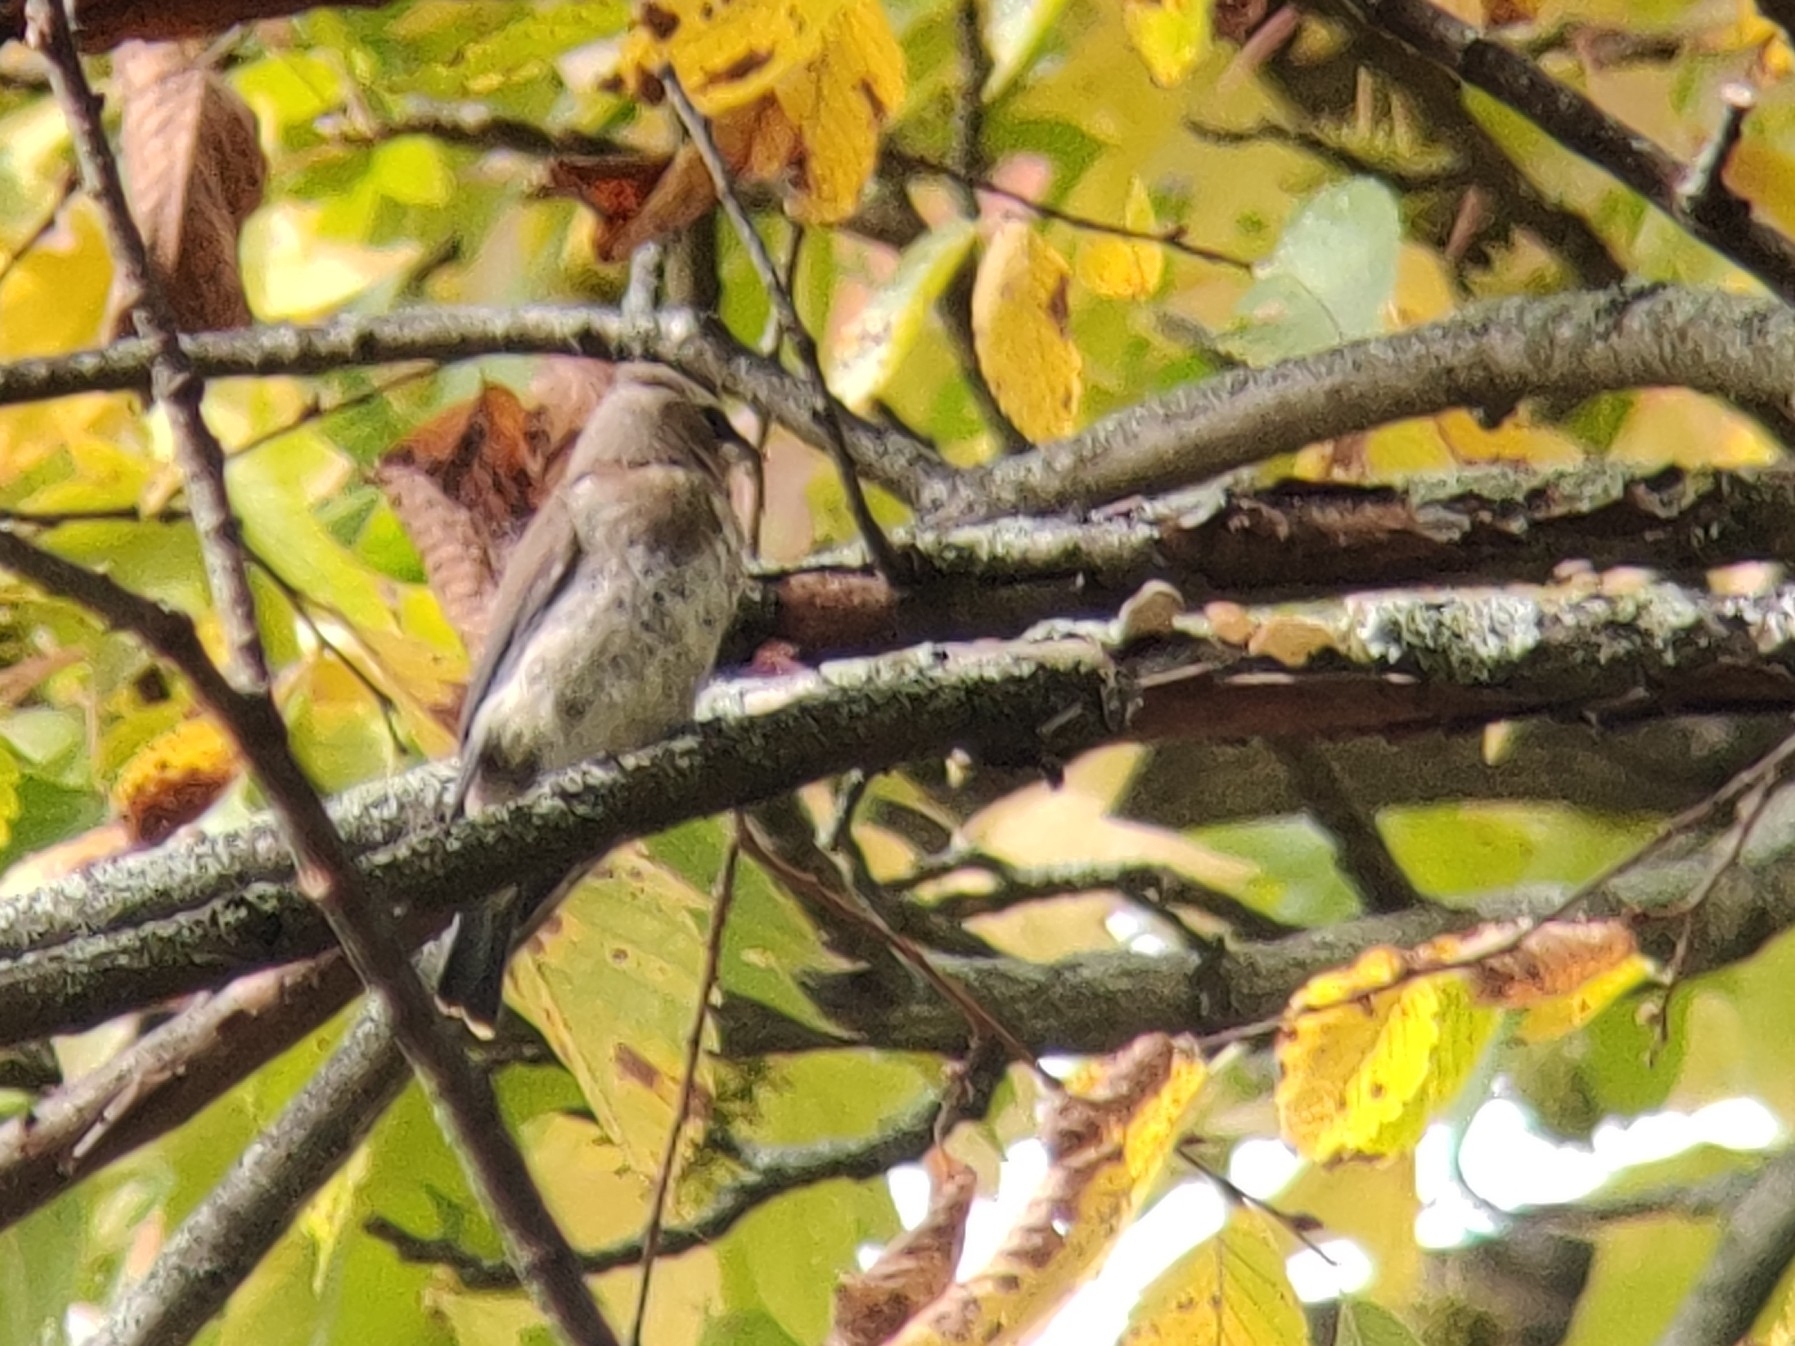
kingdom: Animalia
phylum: Chordata
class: Aves
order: Passeriformes
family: Bombycillidae
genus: Bombycilla
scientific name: Bombycilla cedrorum
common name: Cedar waxwing
